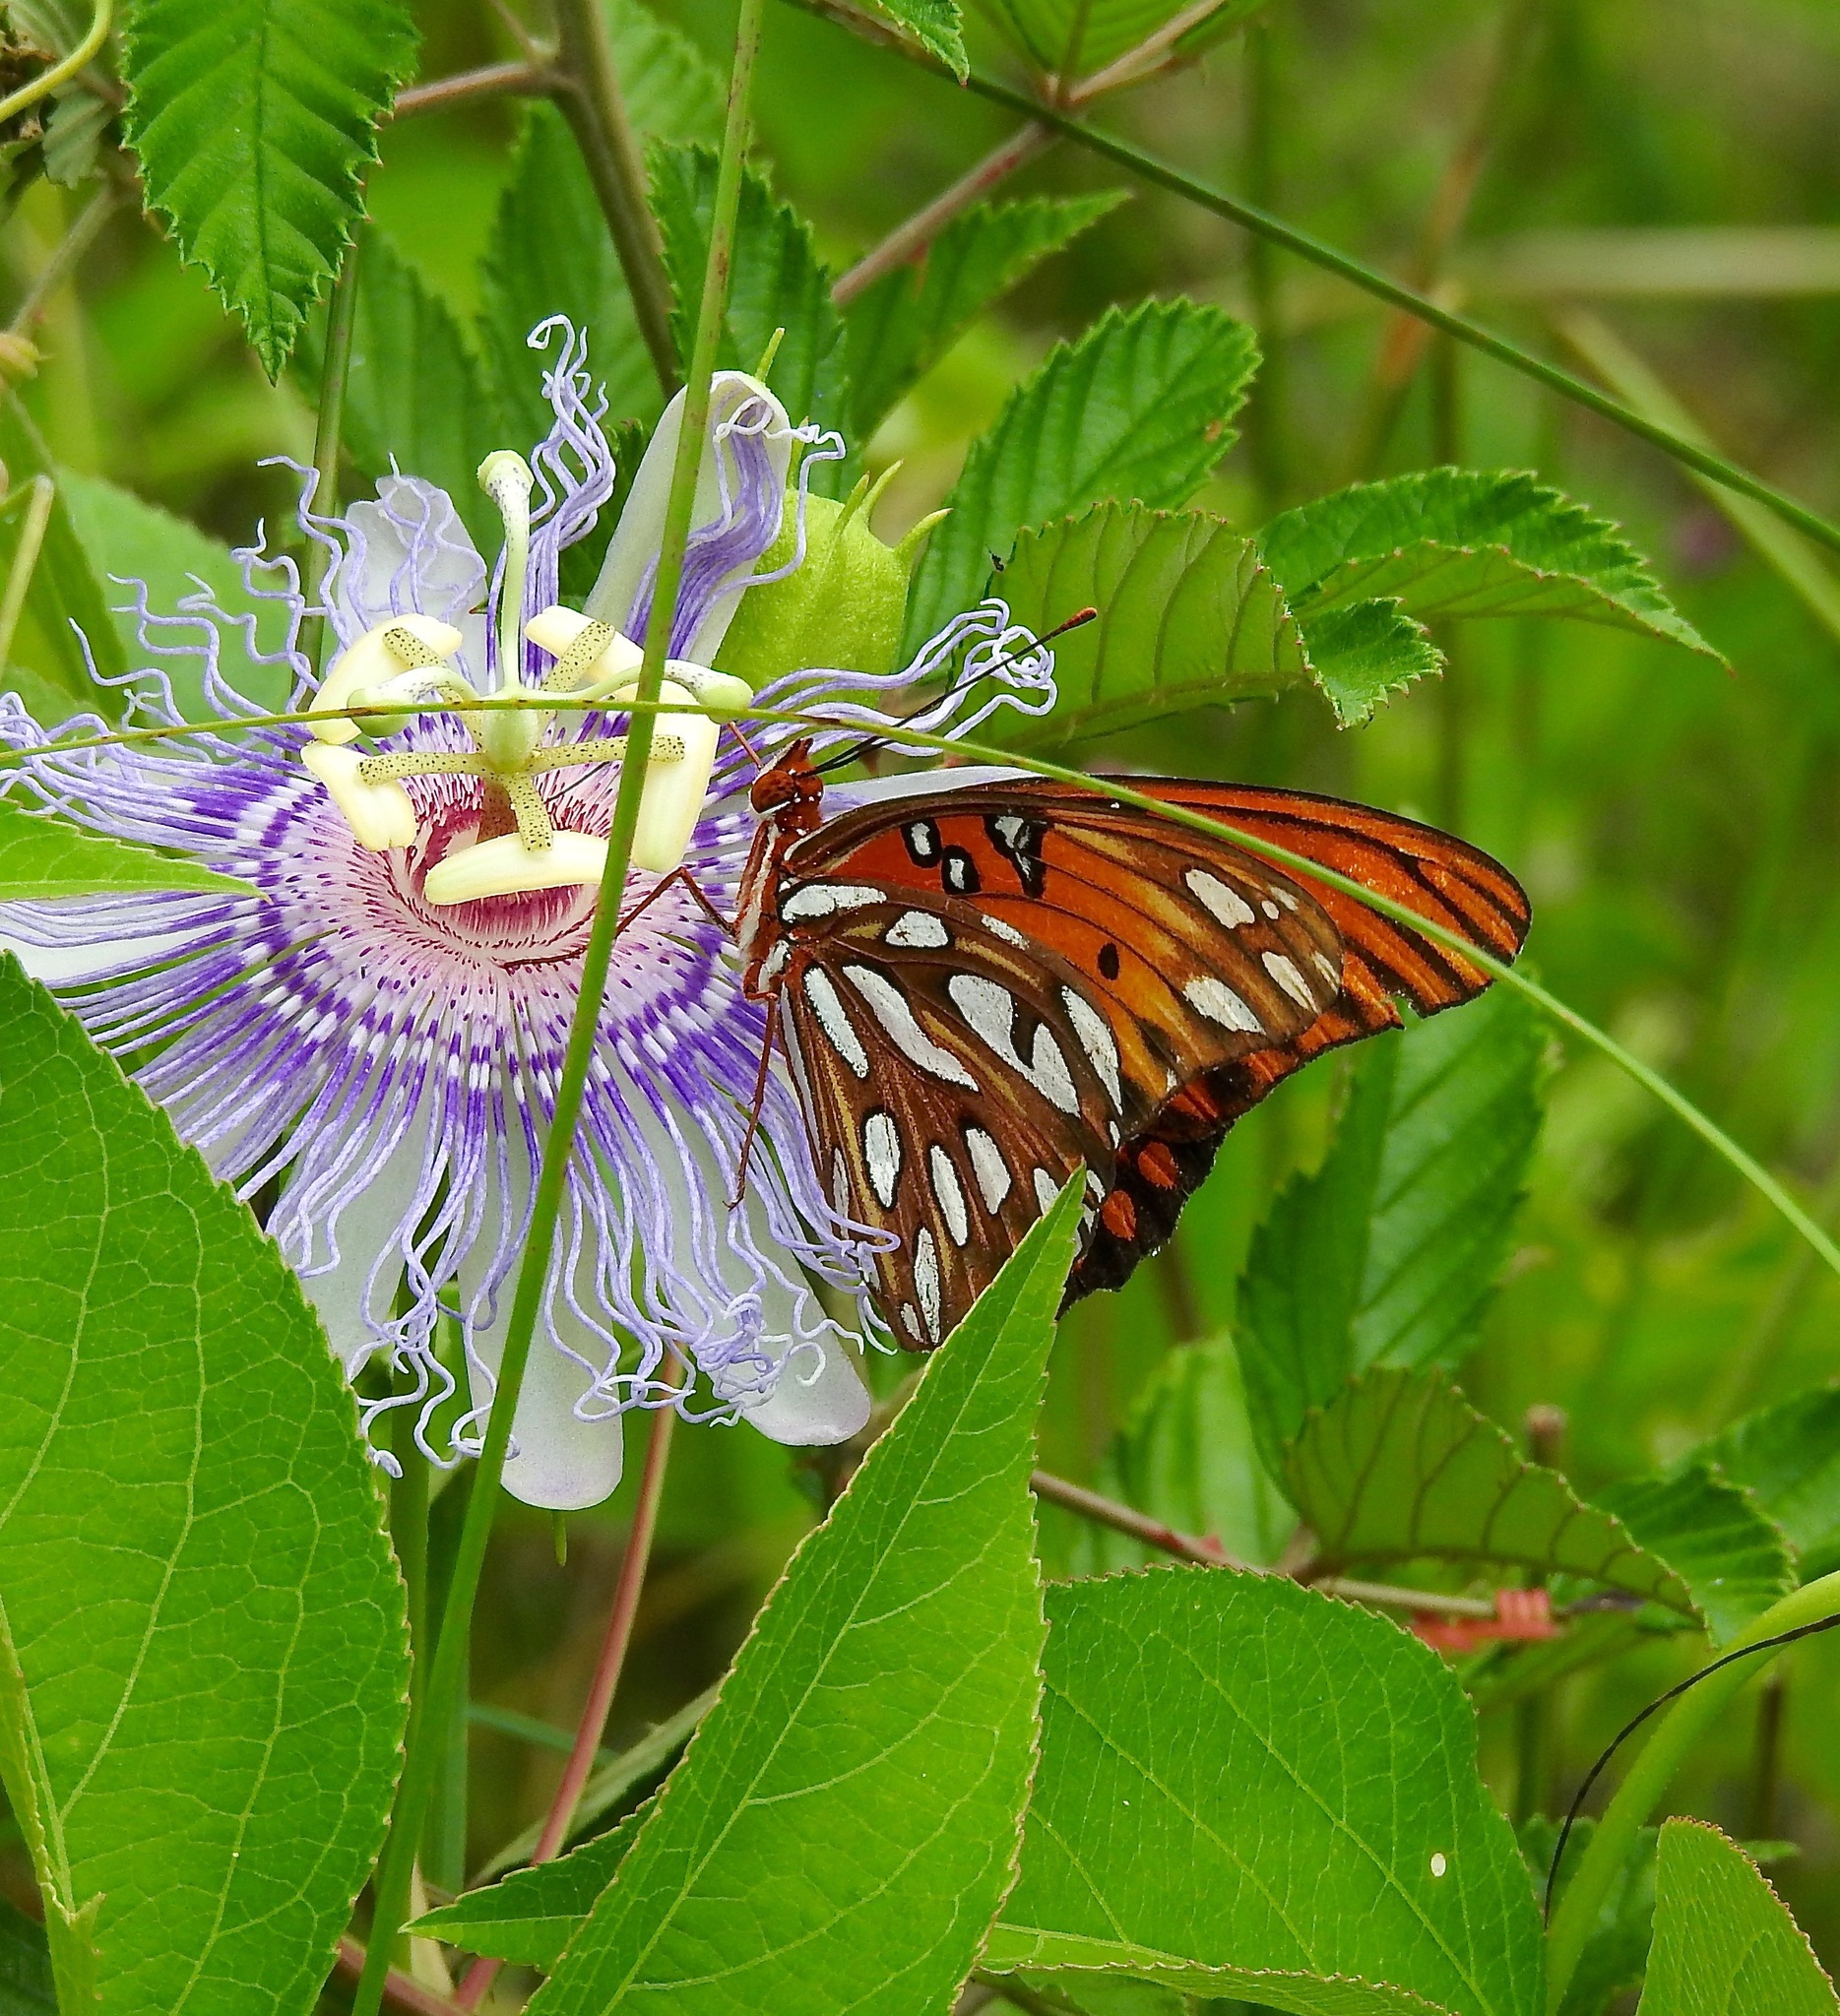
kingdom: Animalia
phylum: Arthropoda
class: Insecta
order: Lepidoptera
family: Nymphalidae
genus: Dione
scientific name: Dione vanillae
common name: Gulf fritillary
